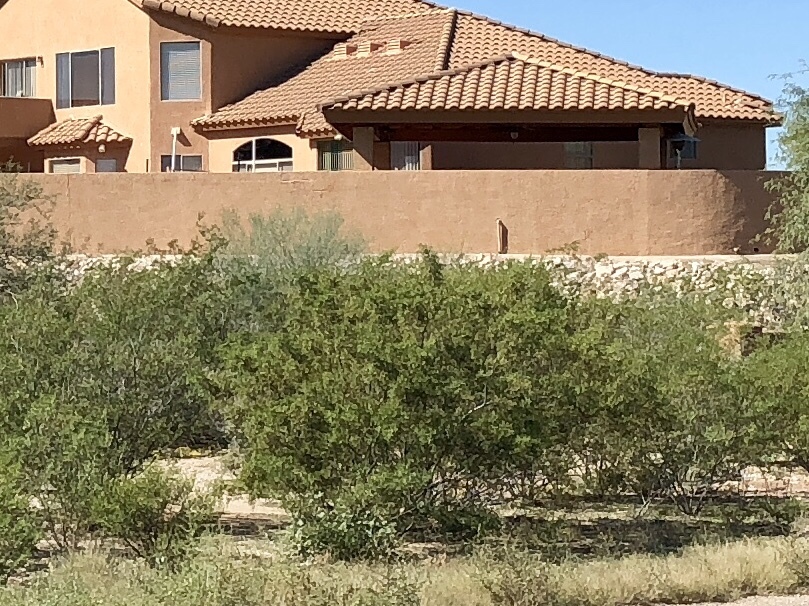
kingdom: Plantae
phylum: Tracheophyta
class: Magnoliopsida
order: Zygophyllales
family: Zygophyllaceae
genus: Larrea
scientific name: Larrea tridentata
